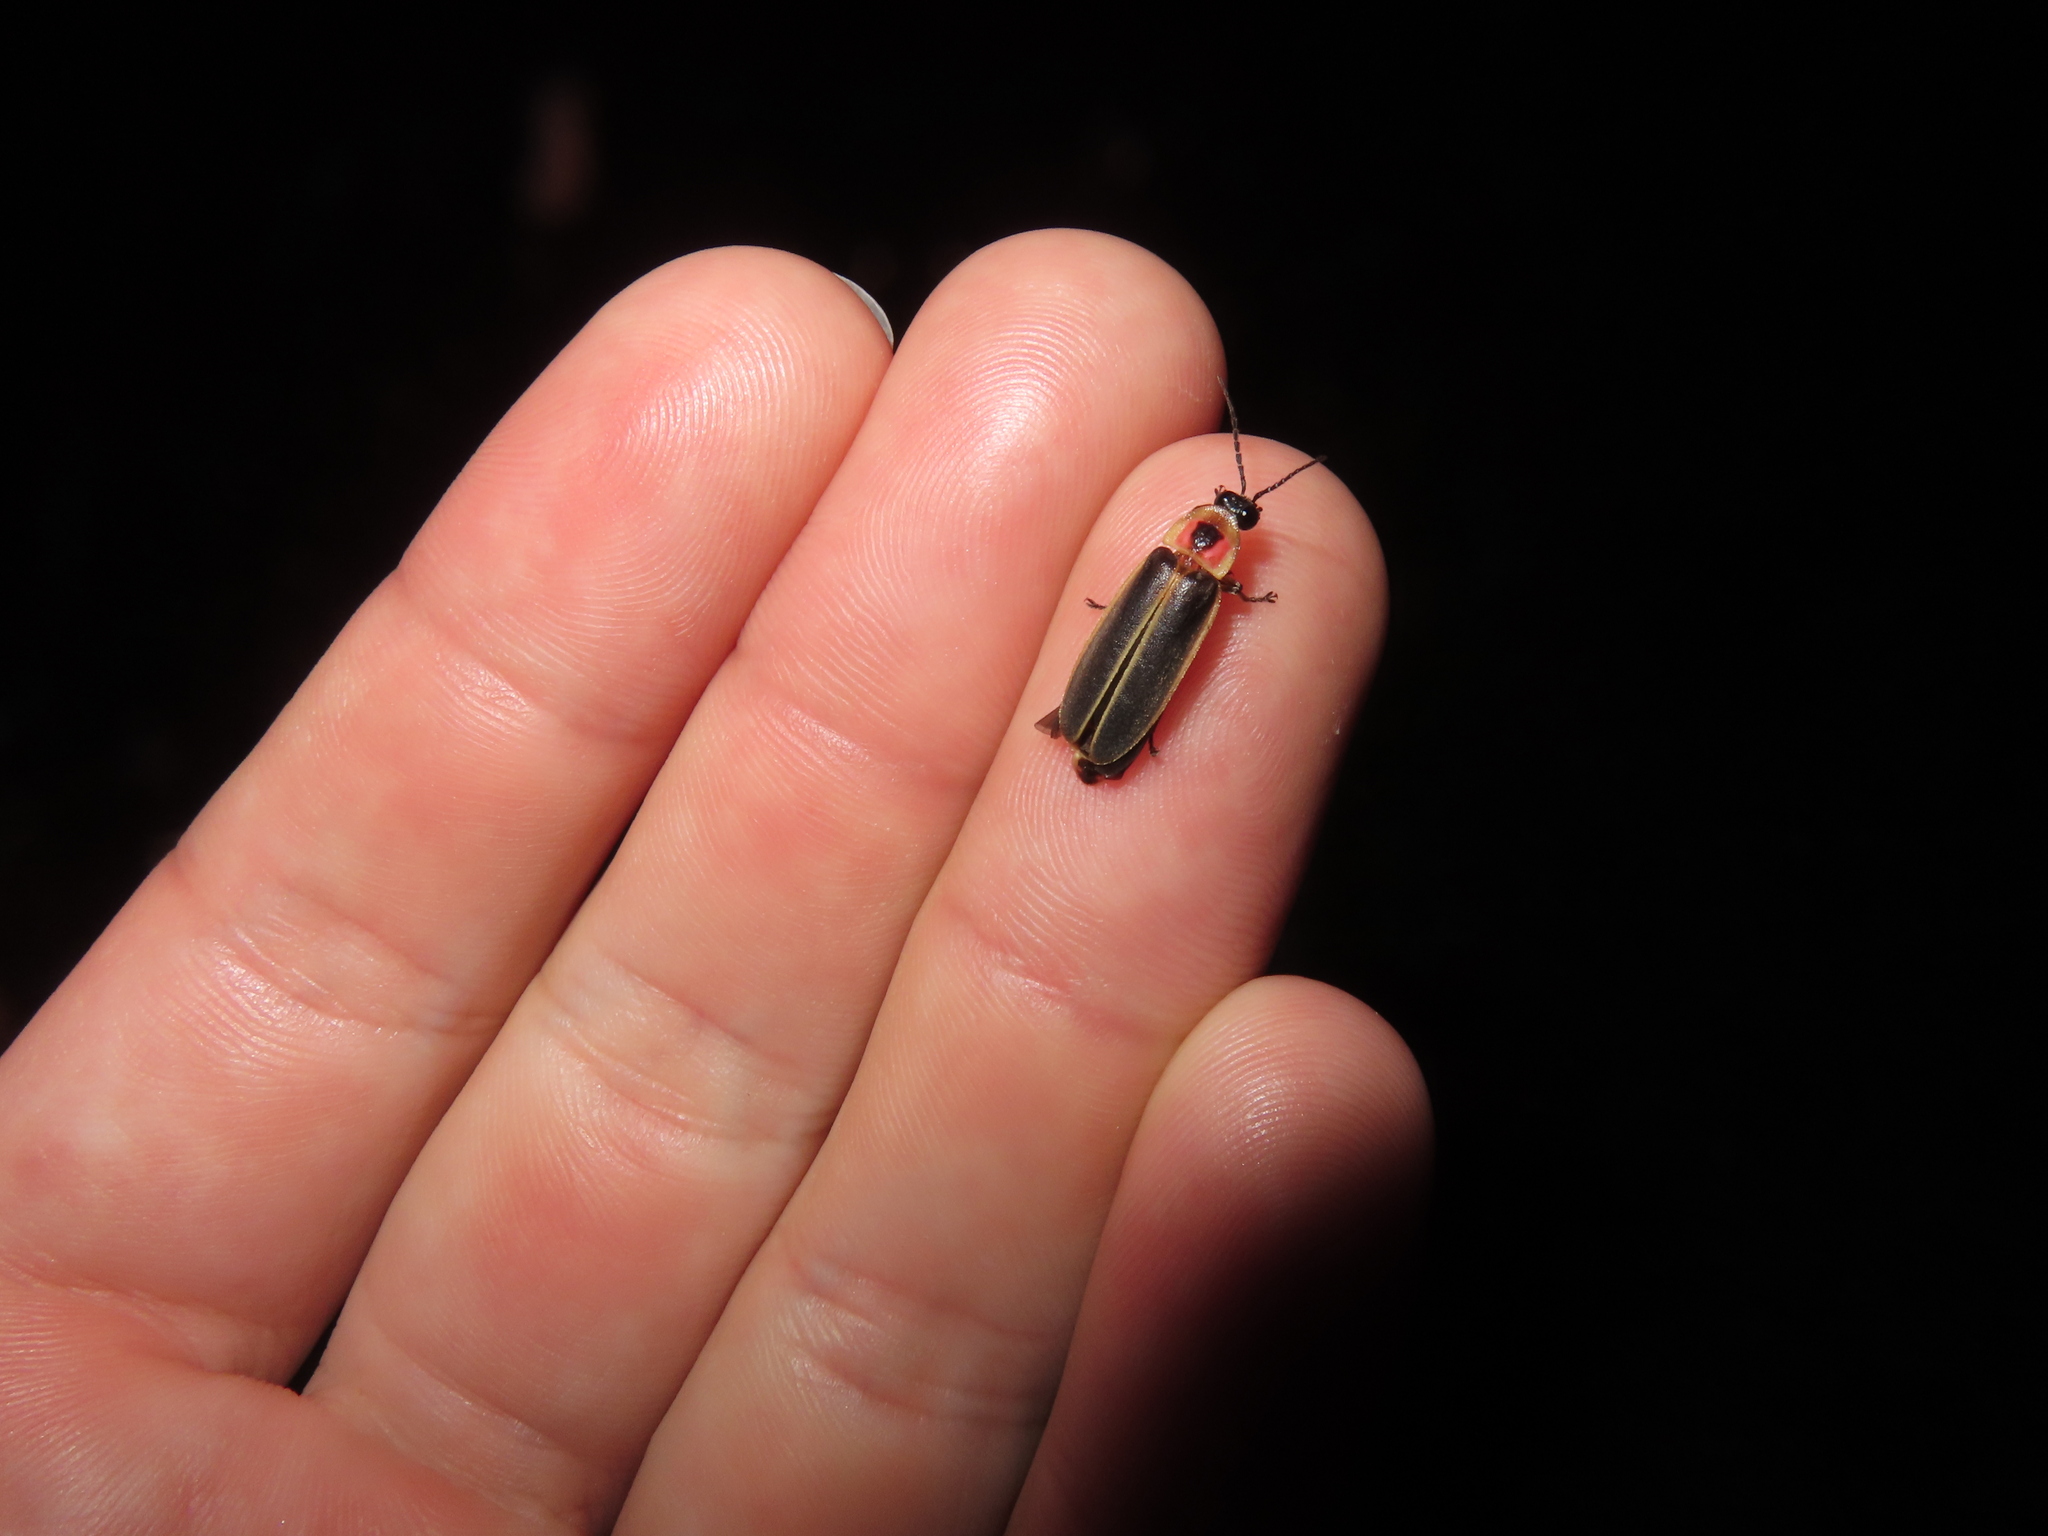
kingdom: Animalia
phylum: Arthropoda
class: Insecta
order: Coleoptera
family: Lampyridae
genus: Photinus
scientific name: Photinus pyralis
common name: Big dipper firefly
